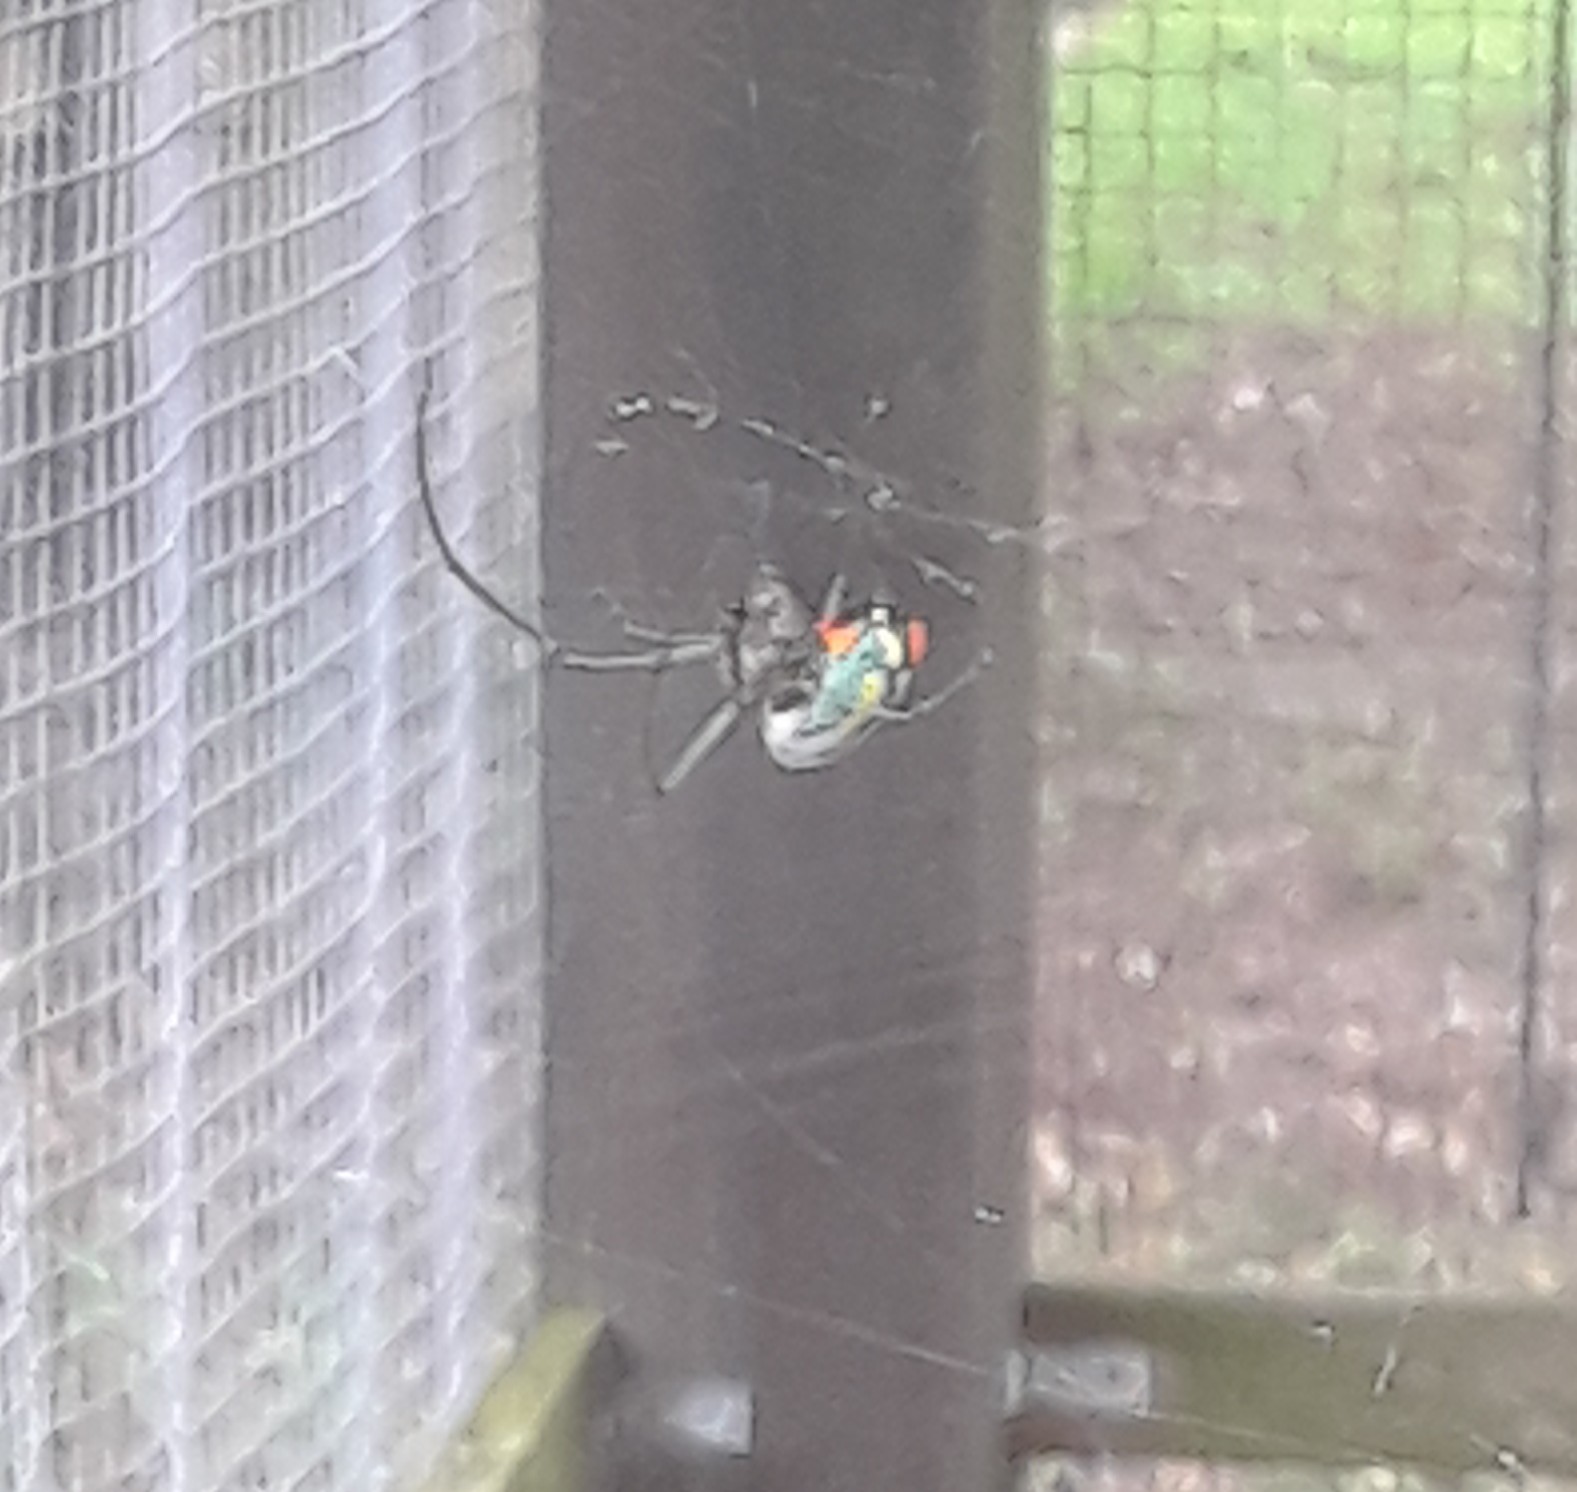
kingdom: Animalia
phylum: Arthropoda
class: Arachnida
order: Araneae
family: Tetragnathidae
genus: Leucauge
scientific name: Leucauge argyrobapta
